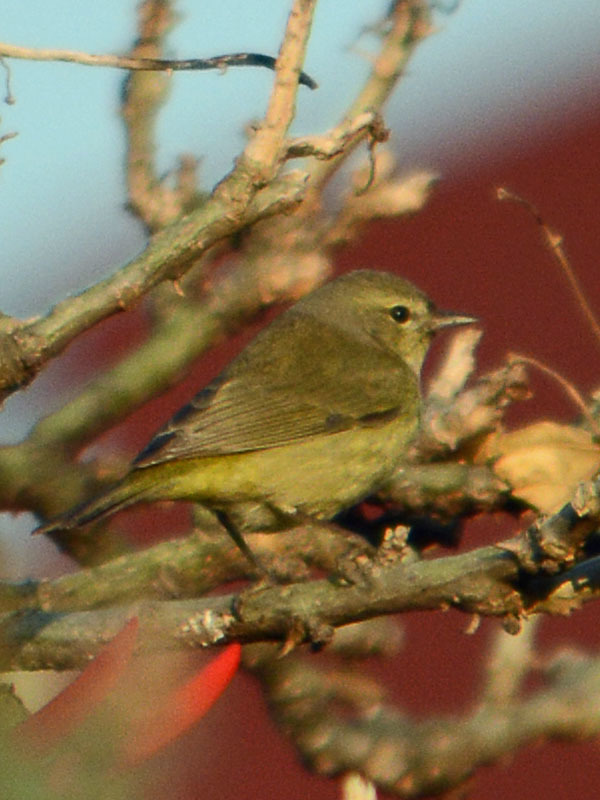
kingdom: Animalia
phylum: Chordata
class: Aves
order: Passeriformes
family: Parulidae
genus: Leiothlypis
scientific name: Leiothlypis celata
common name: Orange-crowned warbler
